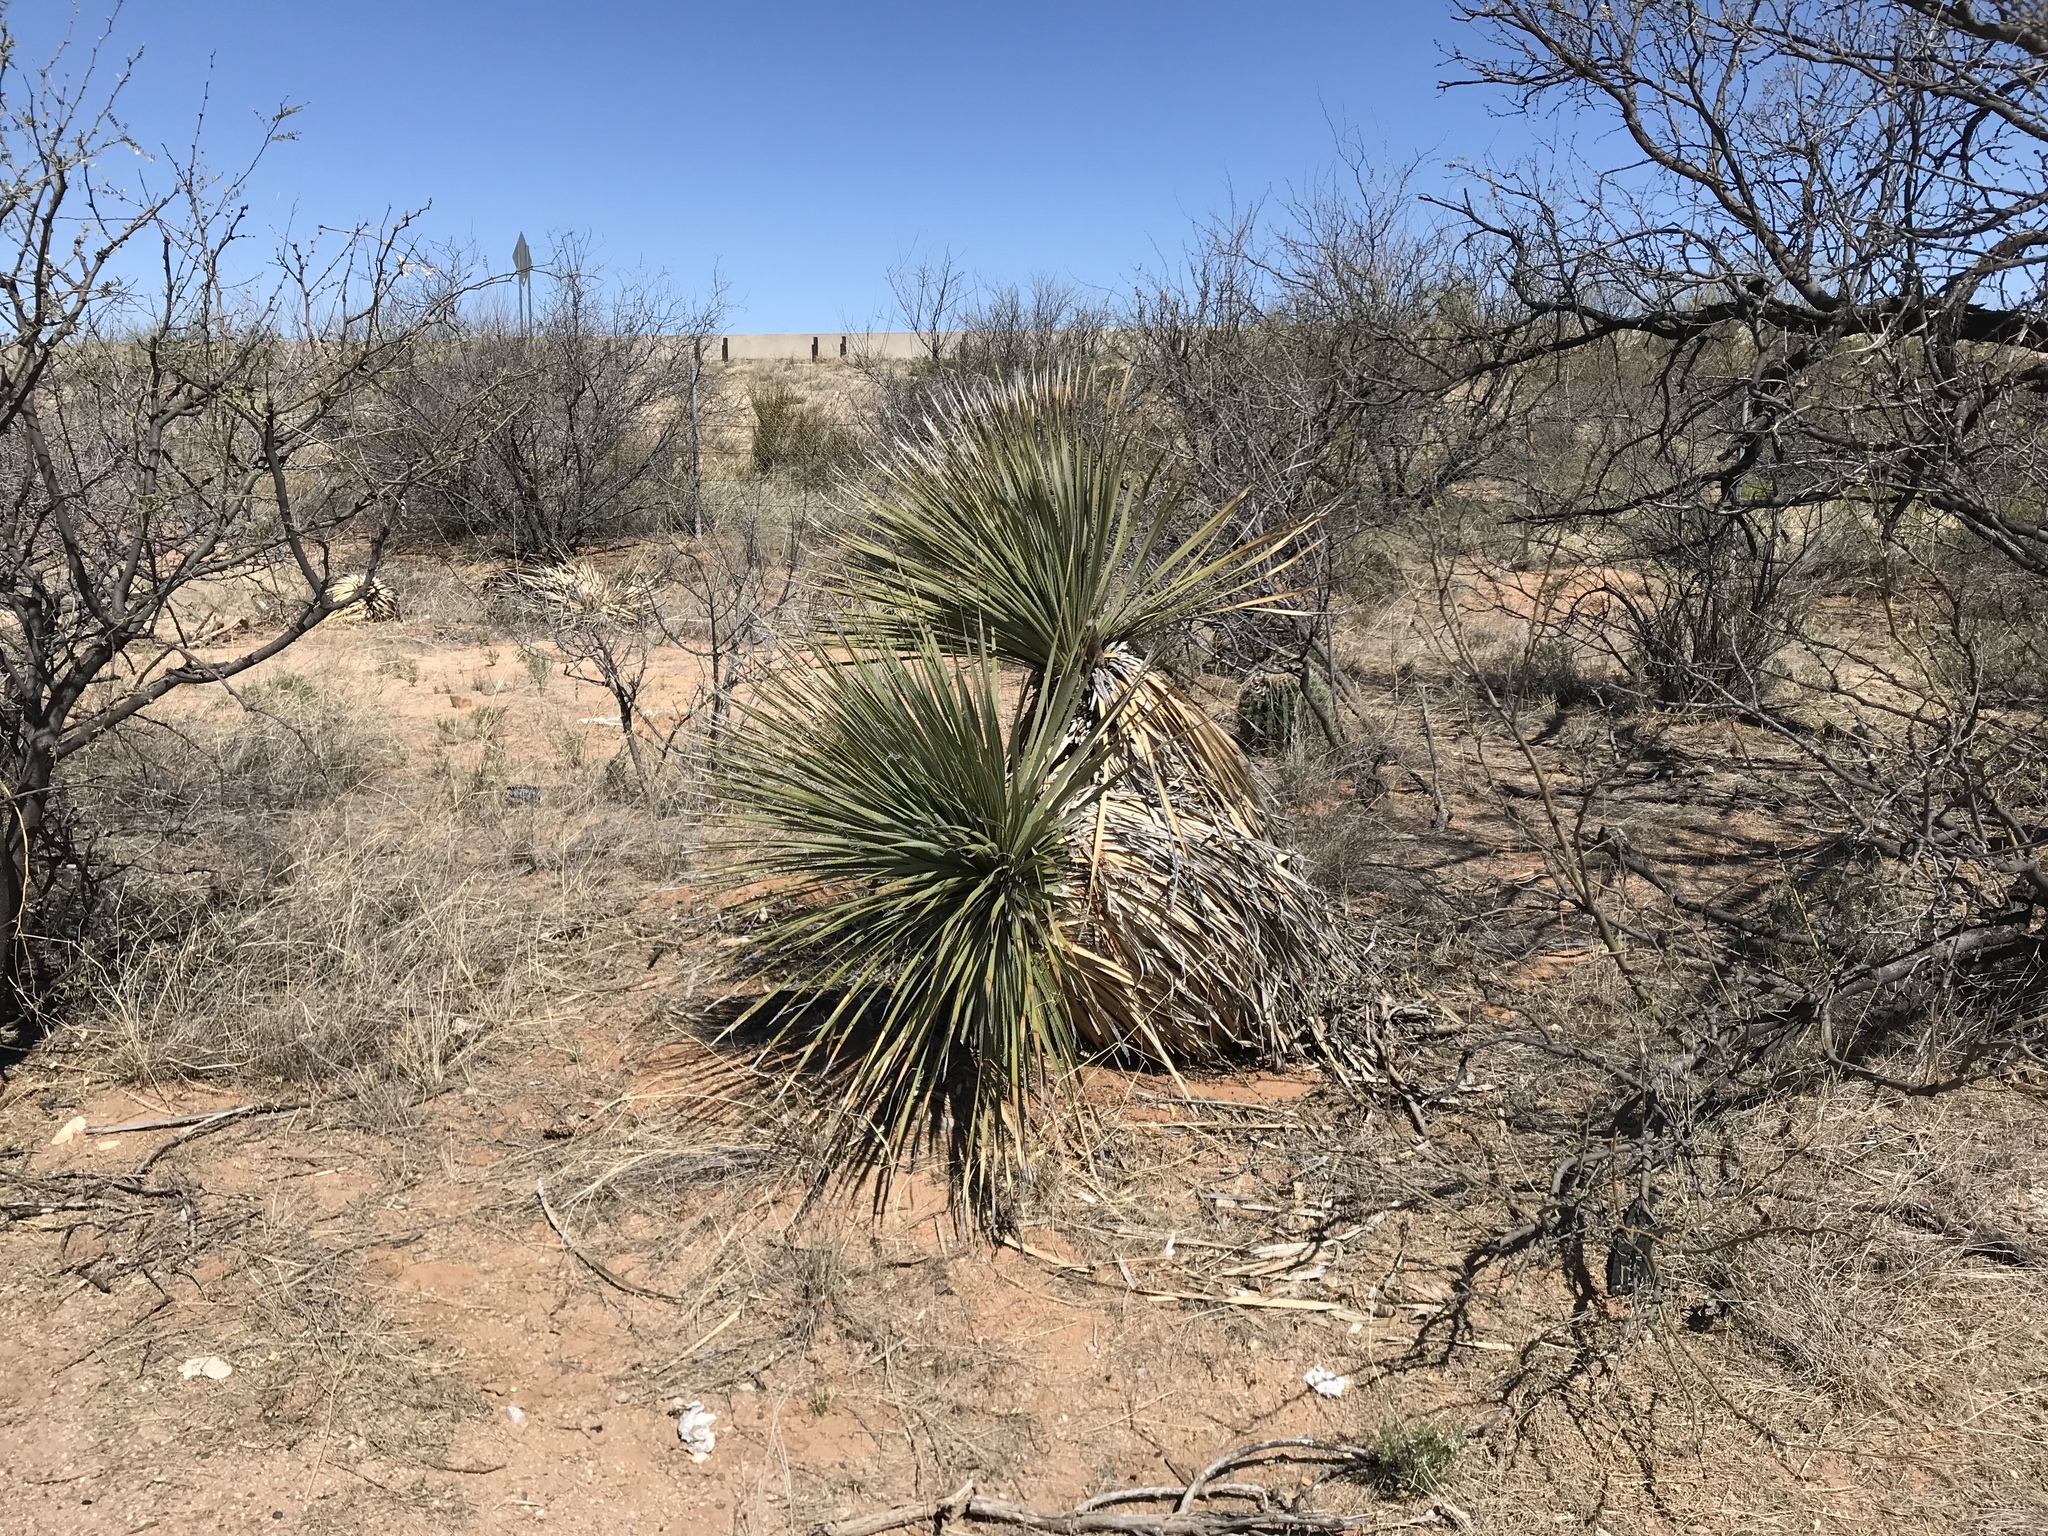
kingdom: Plantae
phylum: Tracheophyta
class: Liliopsida
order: Asparagales
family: Asparagaceae
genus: Yucca
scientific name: Yucca elata
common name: Palmella
